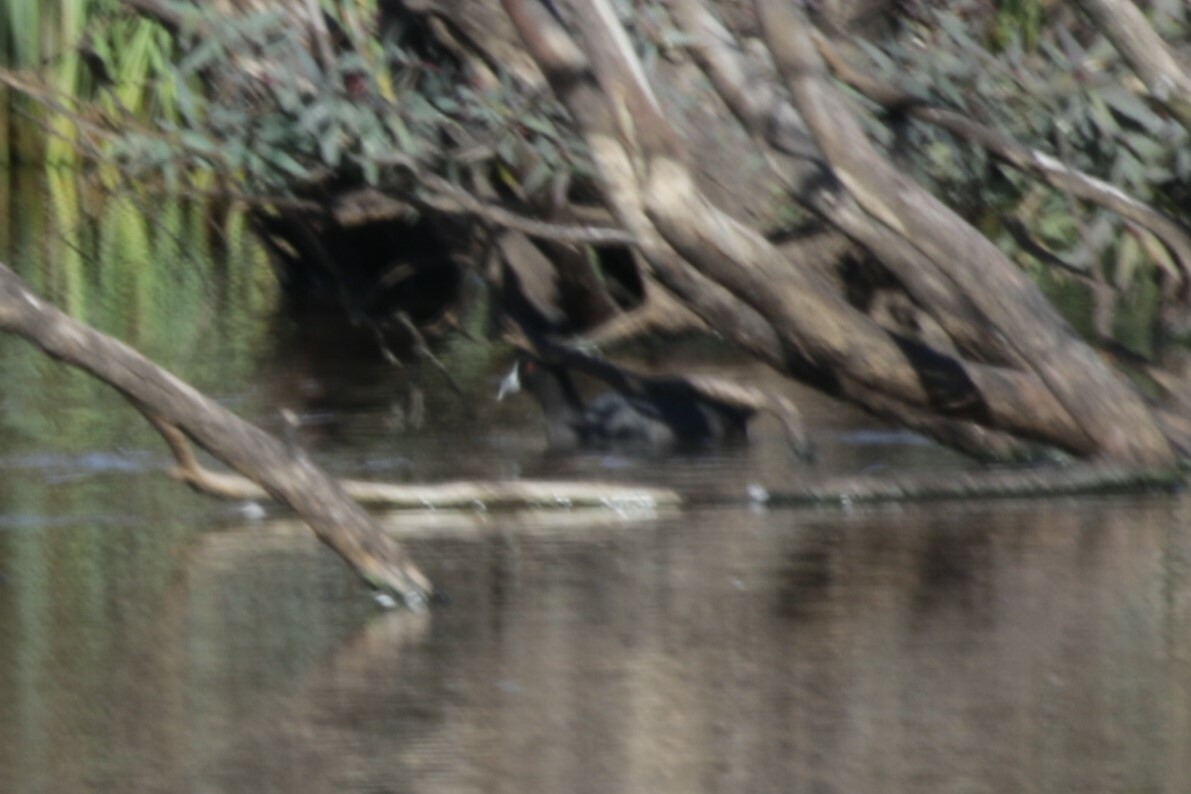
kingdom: Animalia
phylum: Chordata
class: Aves
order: Gruiformes
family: Rallidae
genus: Fulica
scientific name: Fulica atra
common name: Eurasian coot
